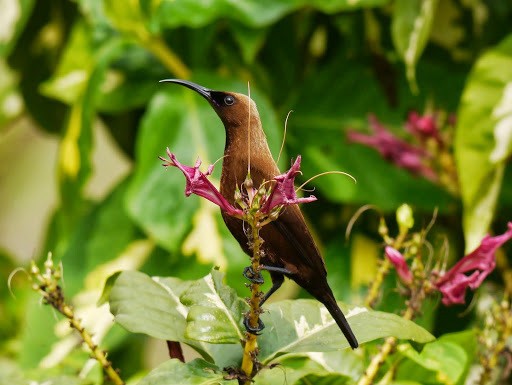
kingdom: Animalia
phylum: Chordata
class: Aves
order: Passeriformes
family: Nectariniidae
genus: Chalcomitra
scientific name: Chalcomitra fuliginosa
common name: Carmelite sunbird
